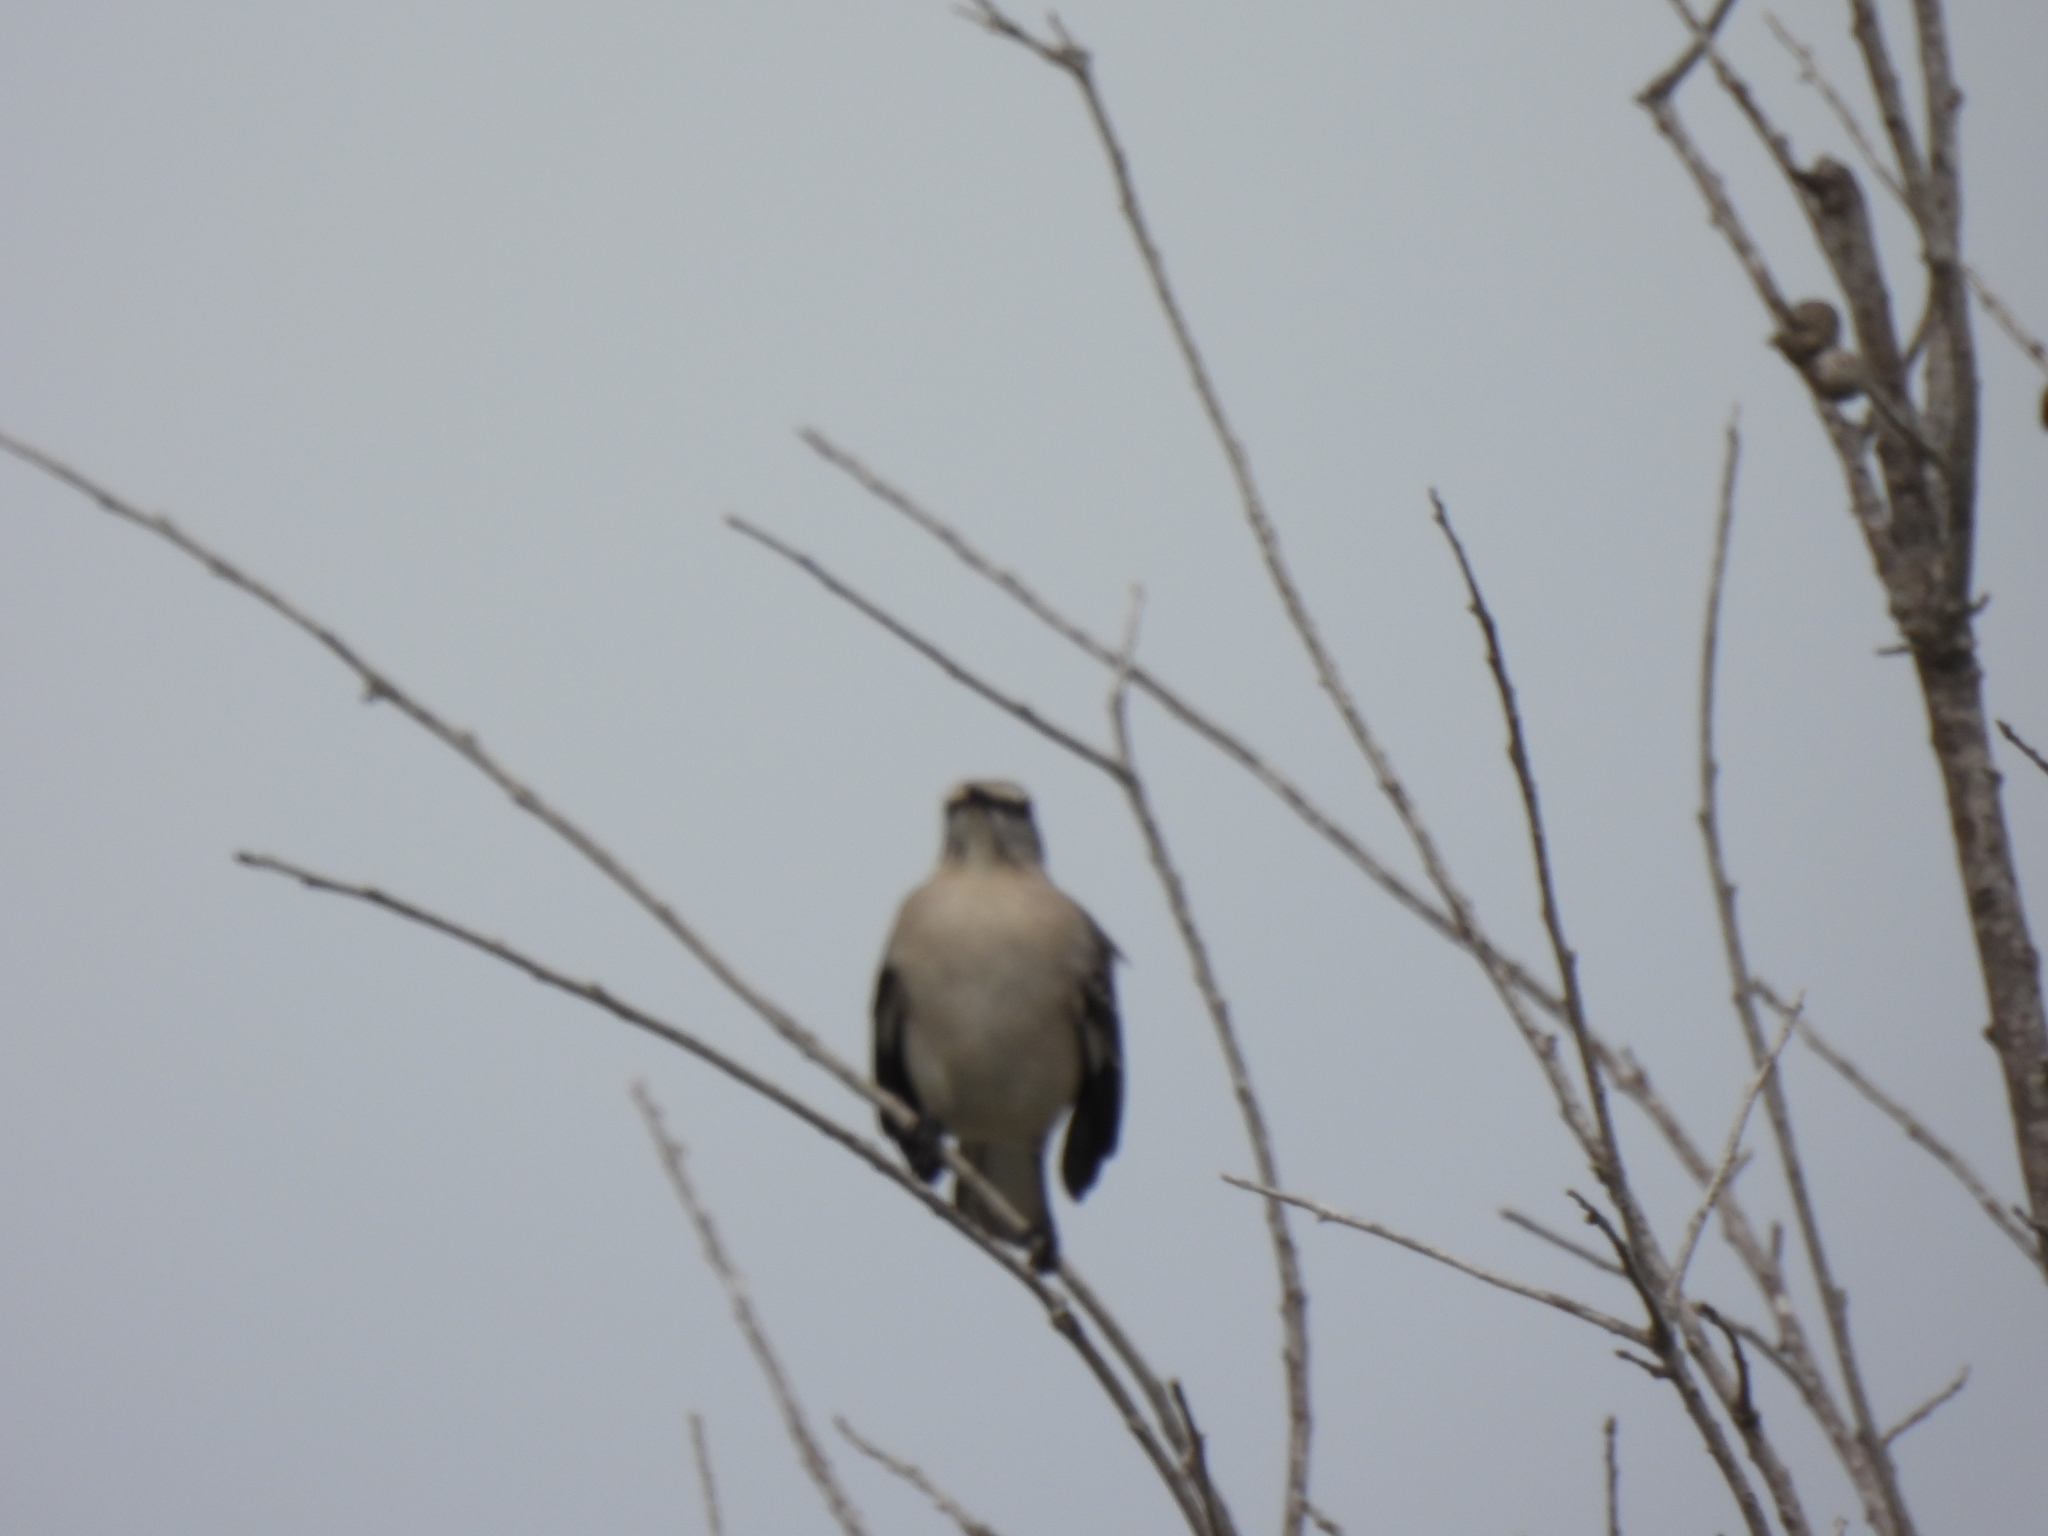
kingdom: Animalia
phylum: Chordata
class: Aves
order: Passeriformes
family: Mimidae
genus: Mimus
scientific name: Mimus polyglottos
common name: Northern mockingbird
